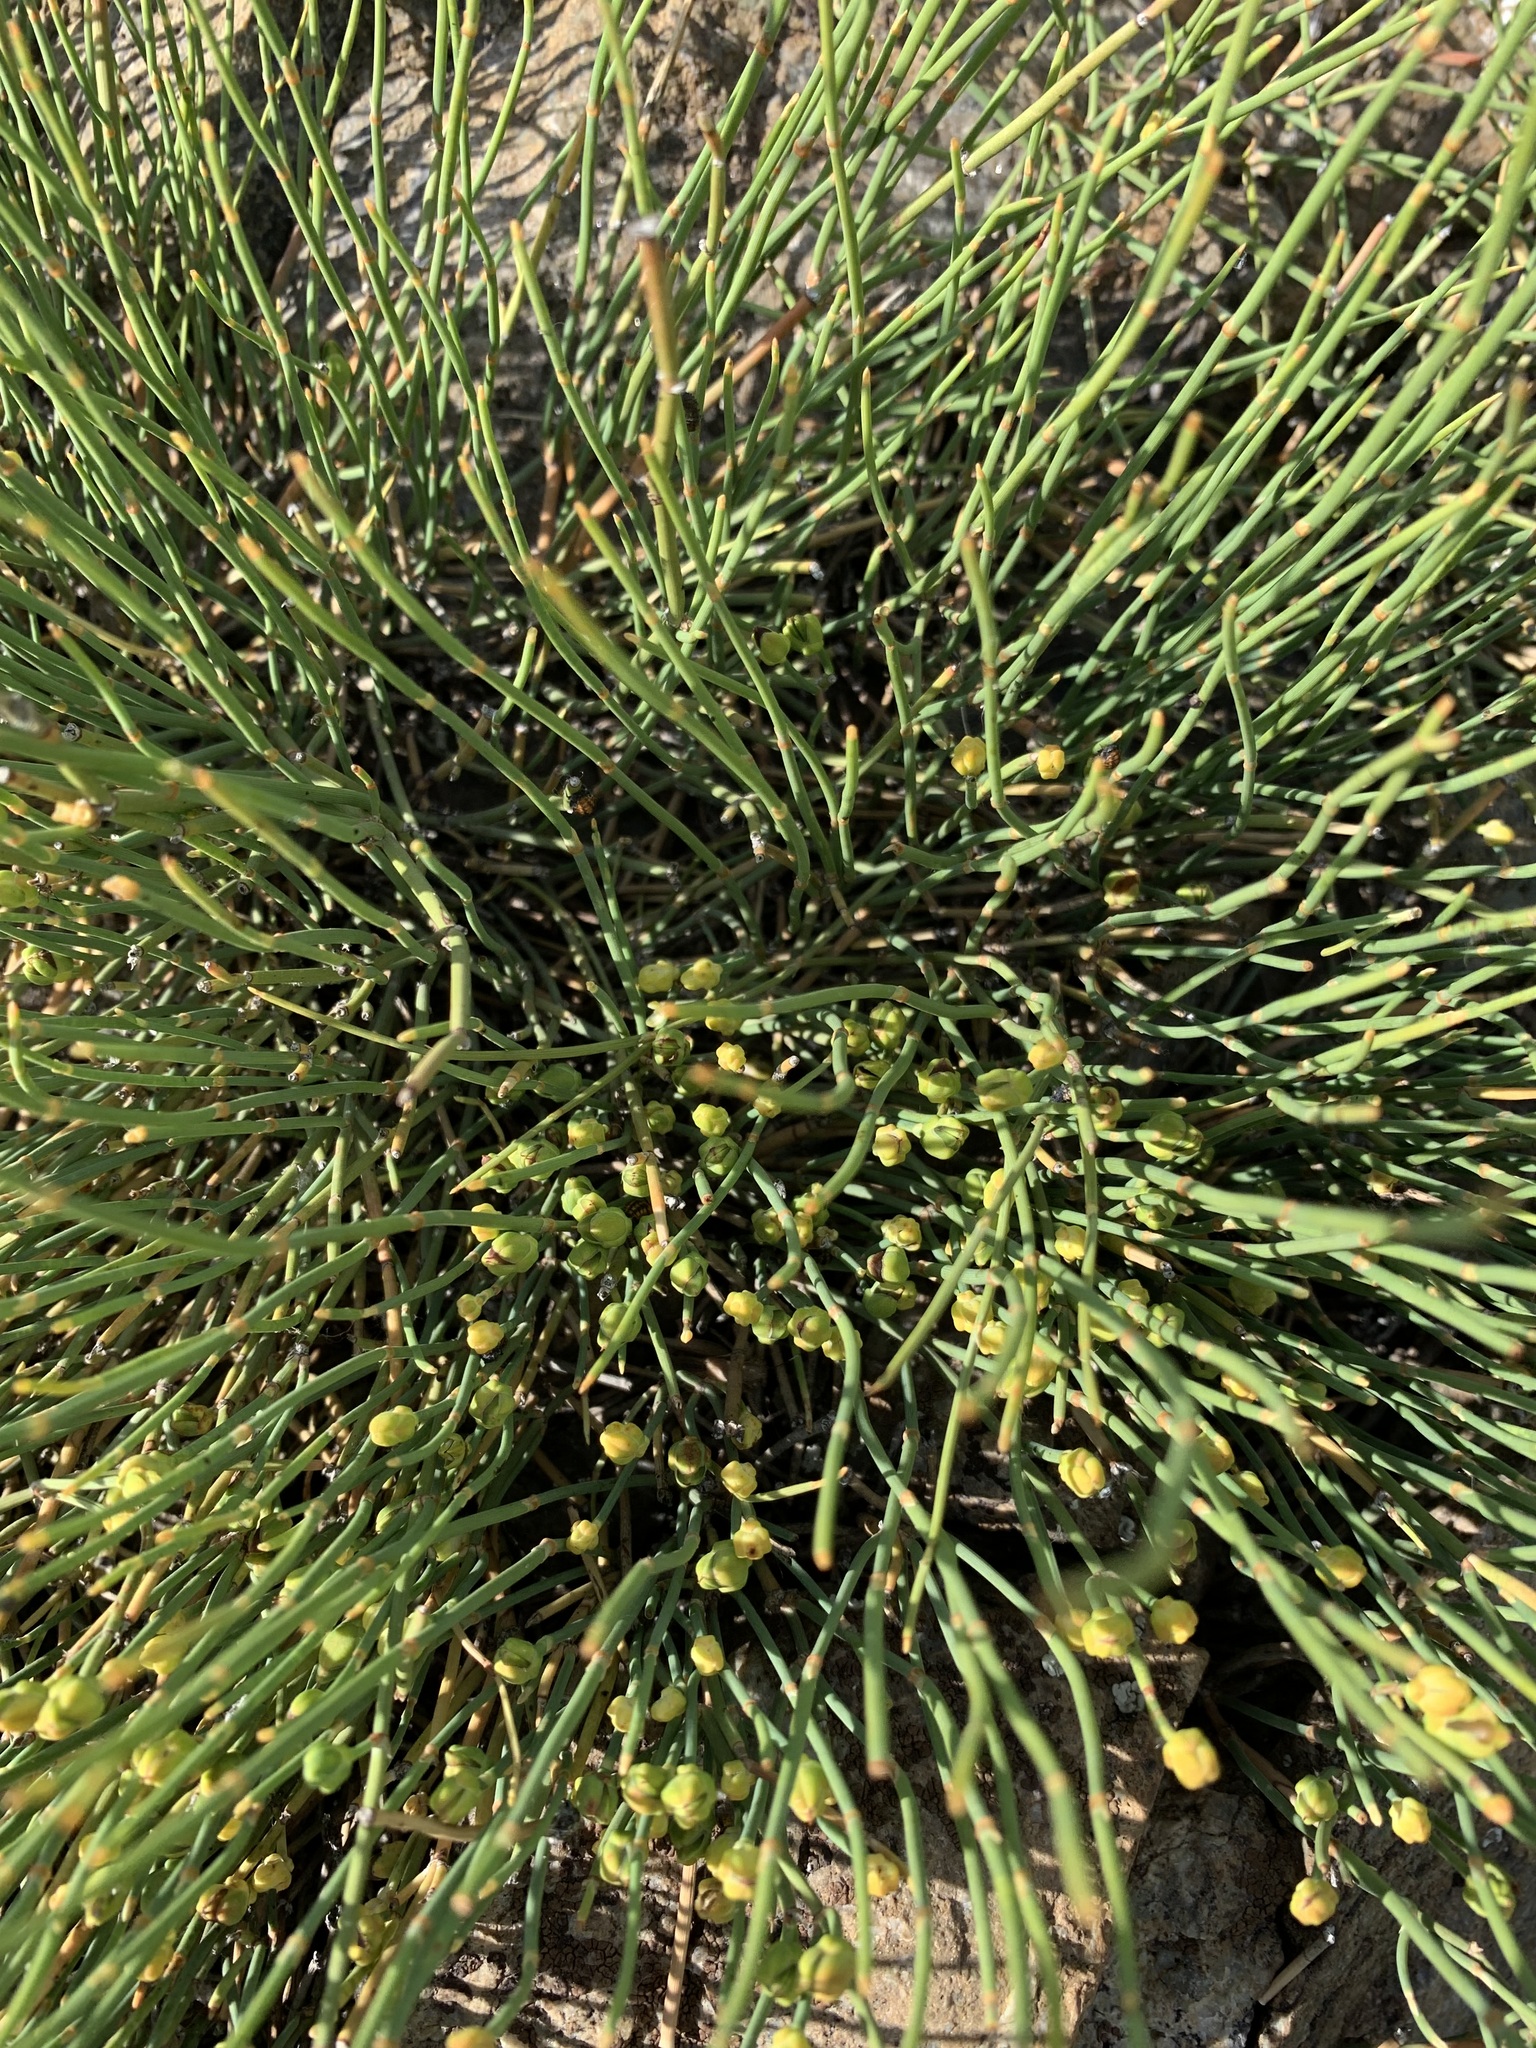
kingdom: Plantae
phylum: Tracheophyta
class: Gnetopsida
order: Ephedrales
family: Ephedraceae
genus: Ephedra
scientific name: Ephedra distachya
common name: Sea grape
